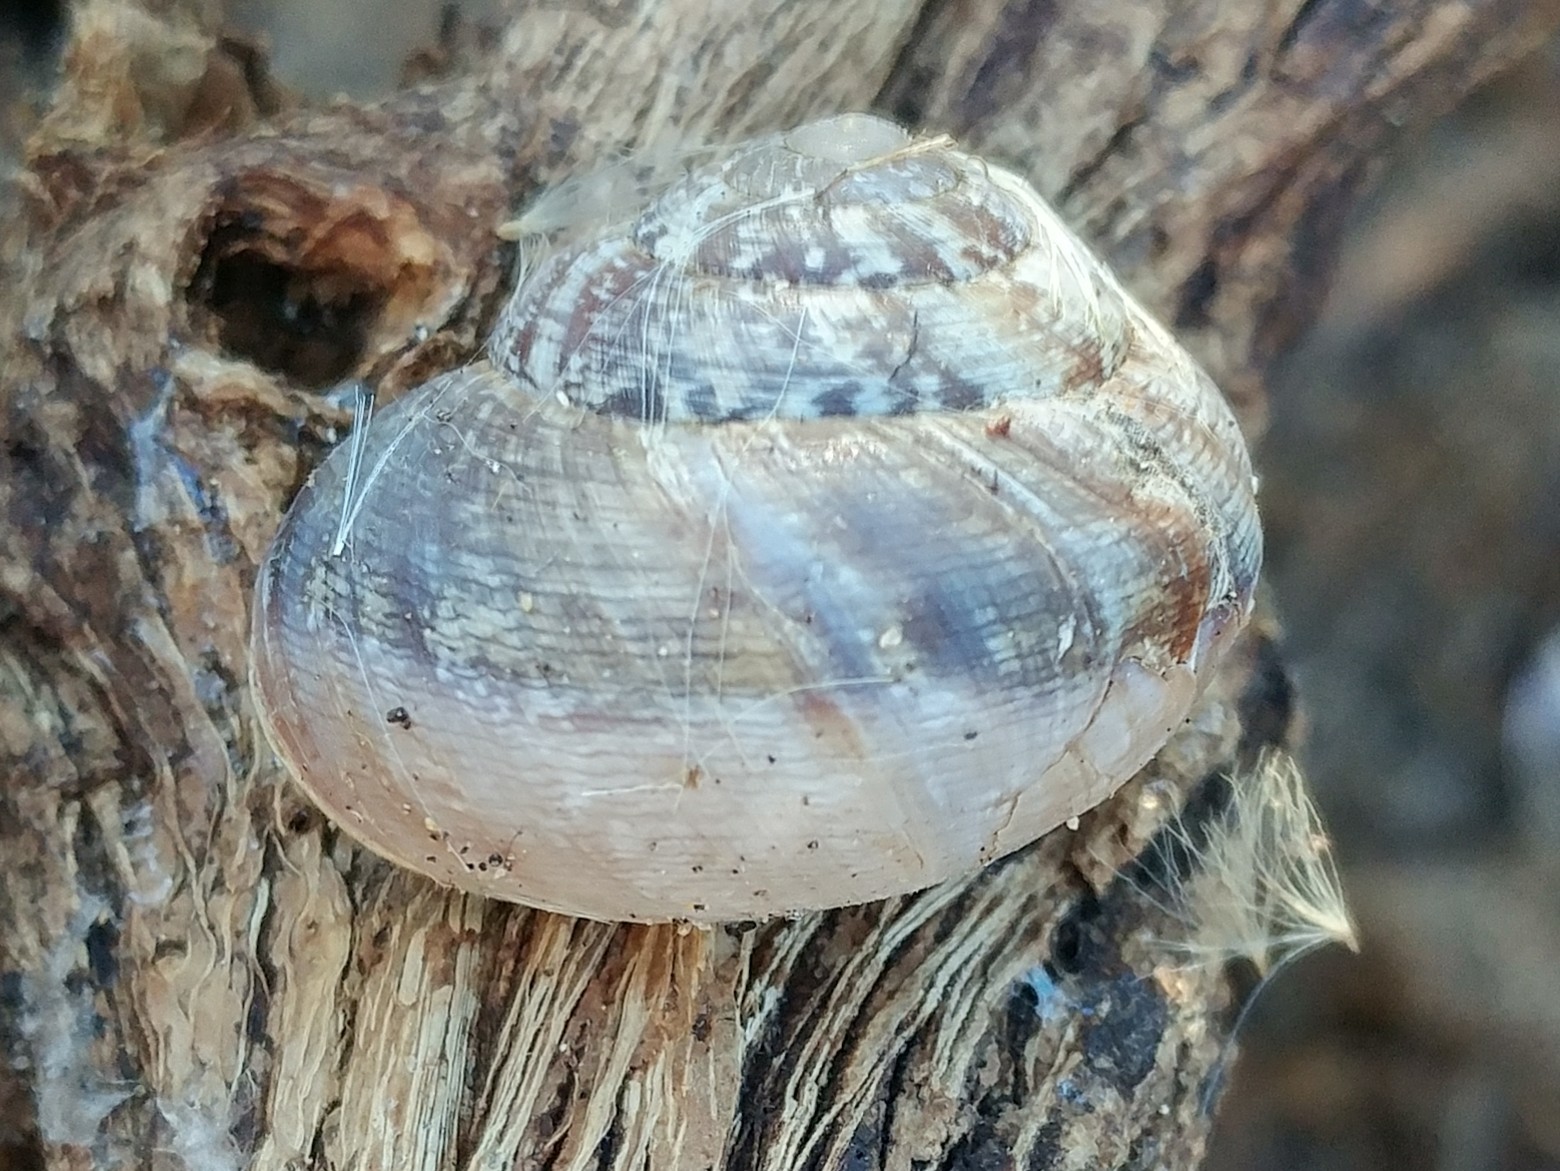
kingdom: Animalia
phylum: Mollusca
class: Gastropoda
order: Stylommatophora
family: Xanthonychidae
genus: Xerarionta
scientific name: Xerarionta tryoni
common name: Bicolor cactus snail
